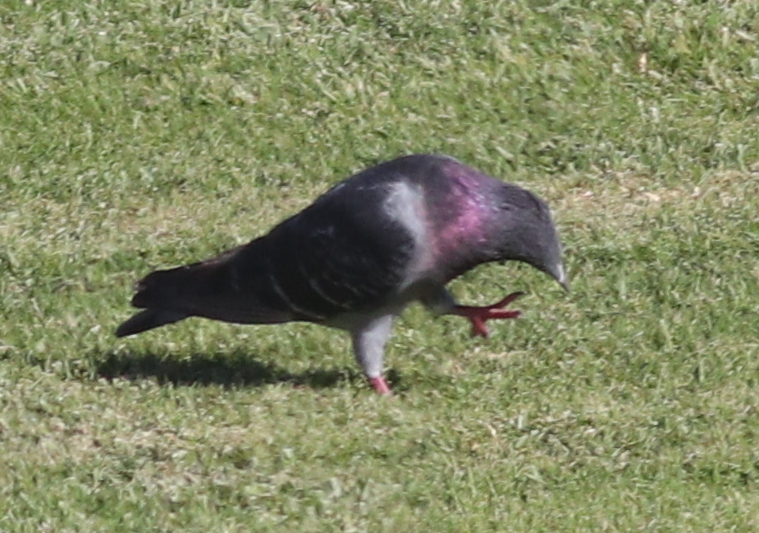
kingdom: Animalia
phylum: Chordata
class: Aves
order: Columbiformes
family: Columbidae
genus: Columba
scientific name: Columba livia
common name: Rock pigeon
